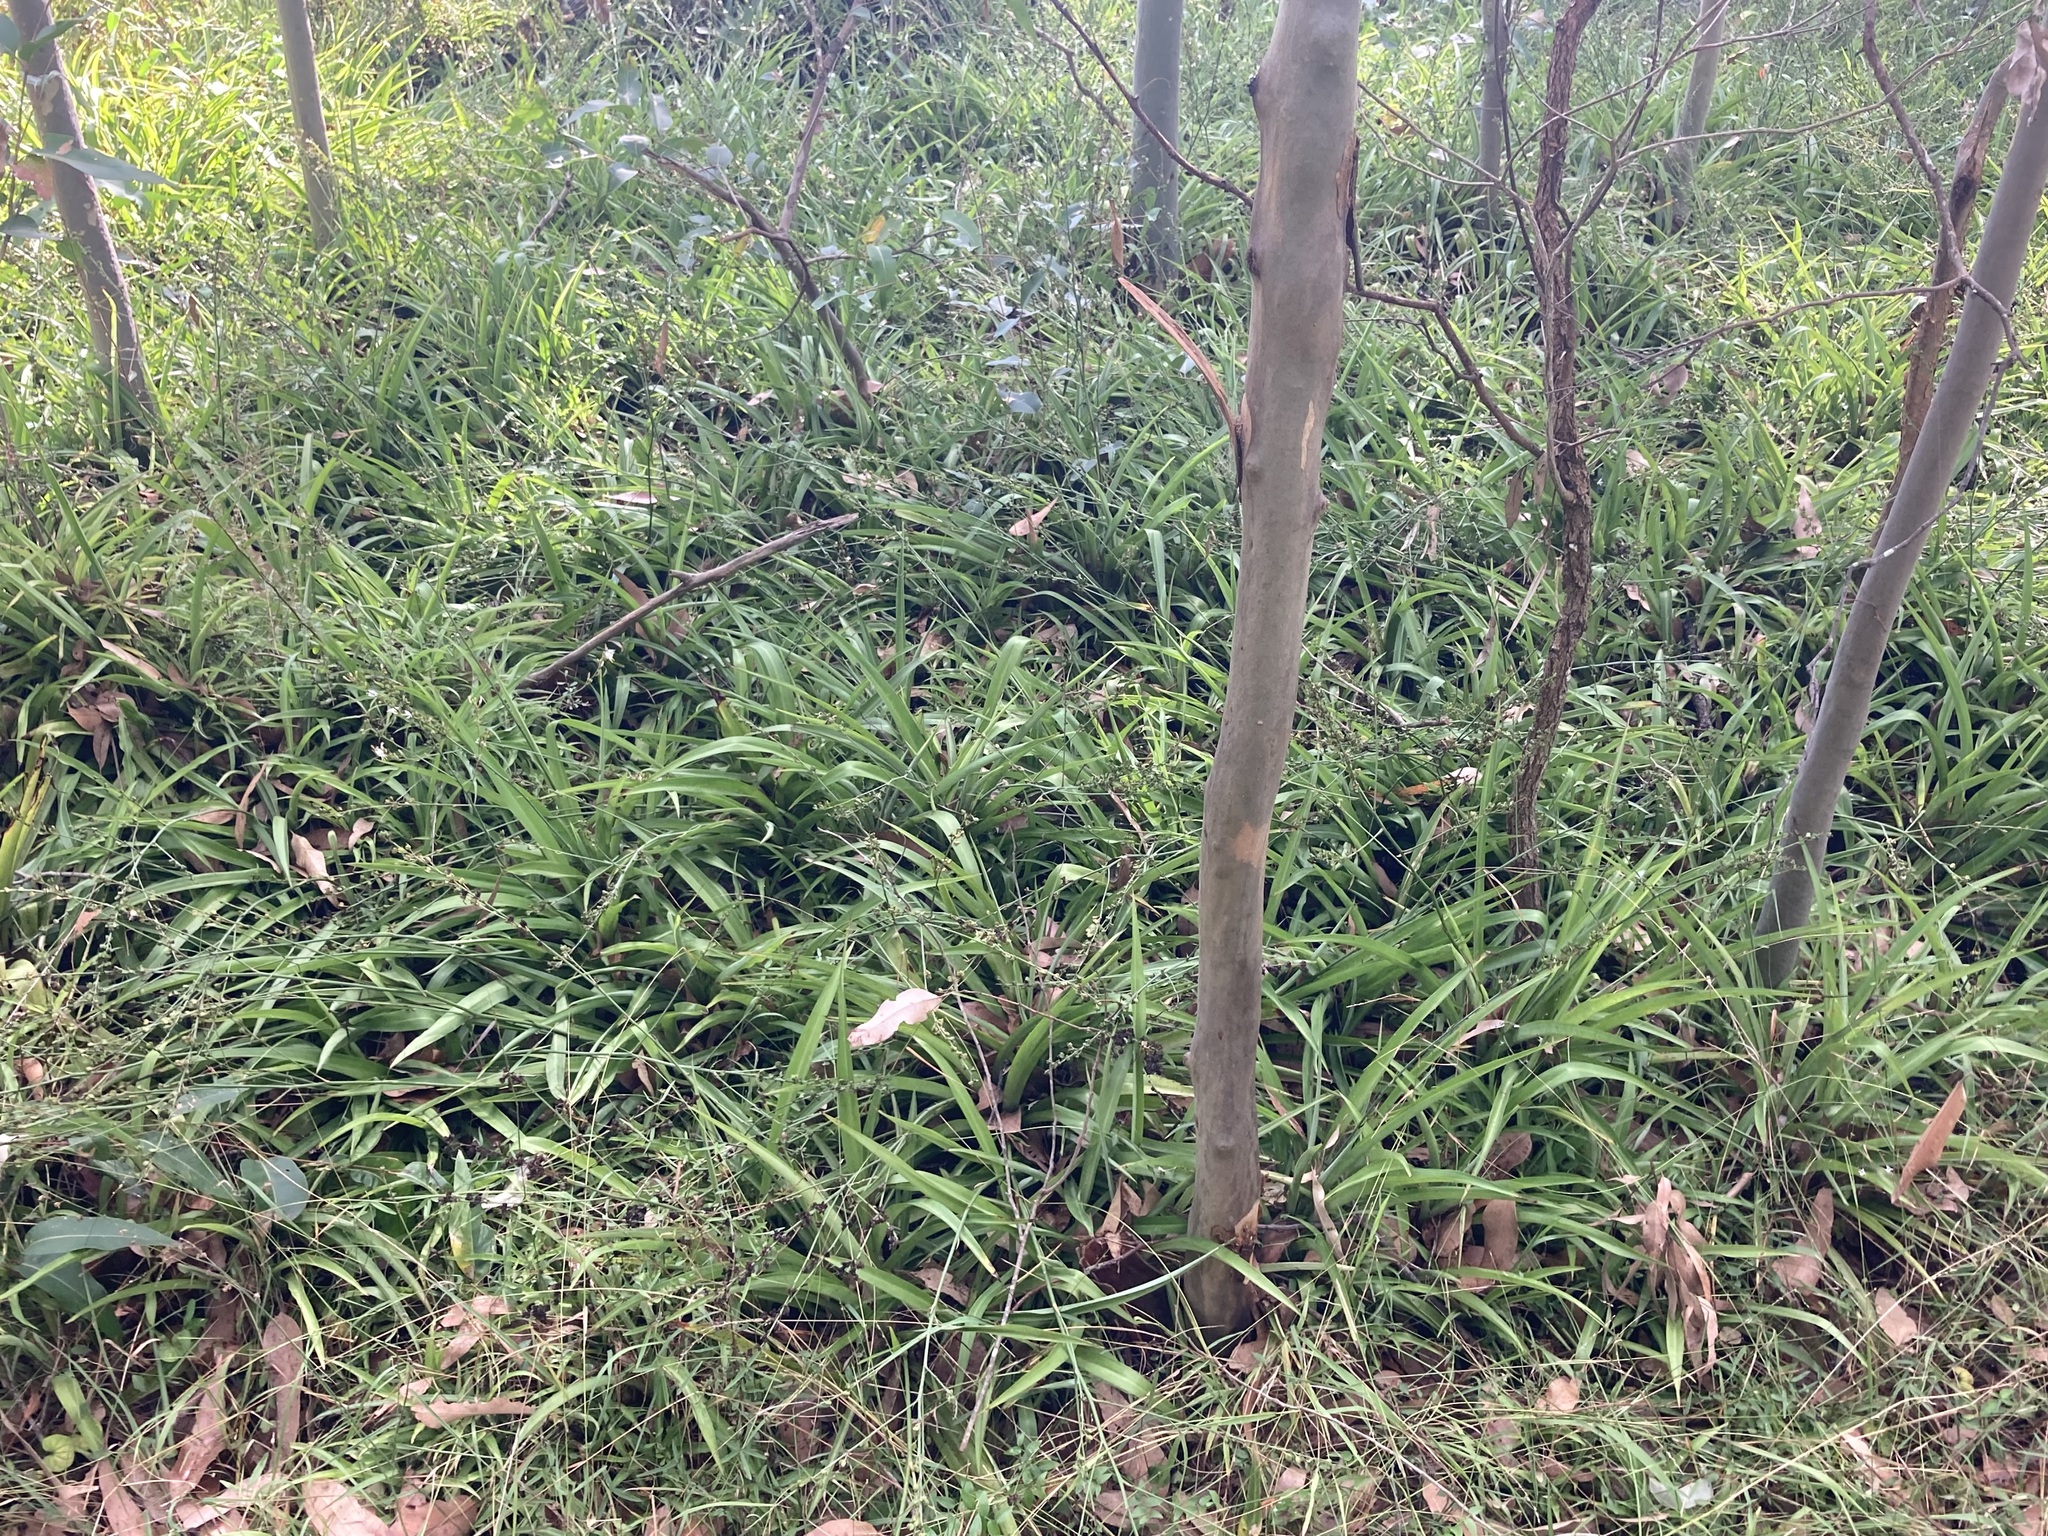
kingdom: Plantae
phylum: Tracheophyta
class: Liliopsida
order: Asparagales
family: Asparagaceae
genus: Chlorophytum
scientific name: Chlorophytum comosum
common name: Spider plant
